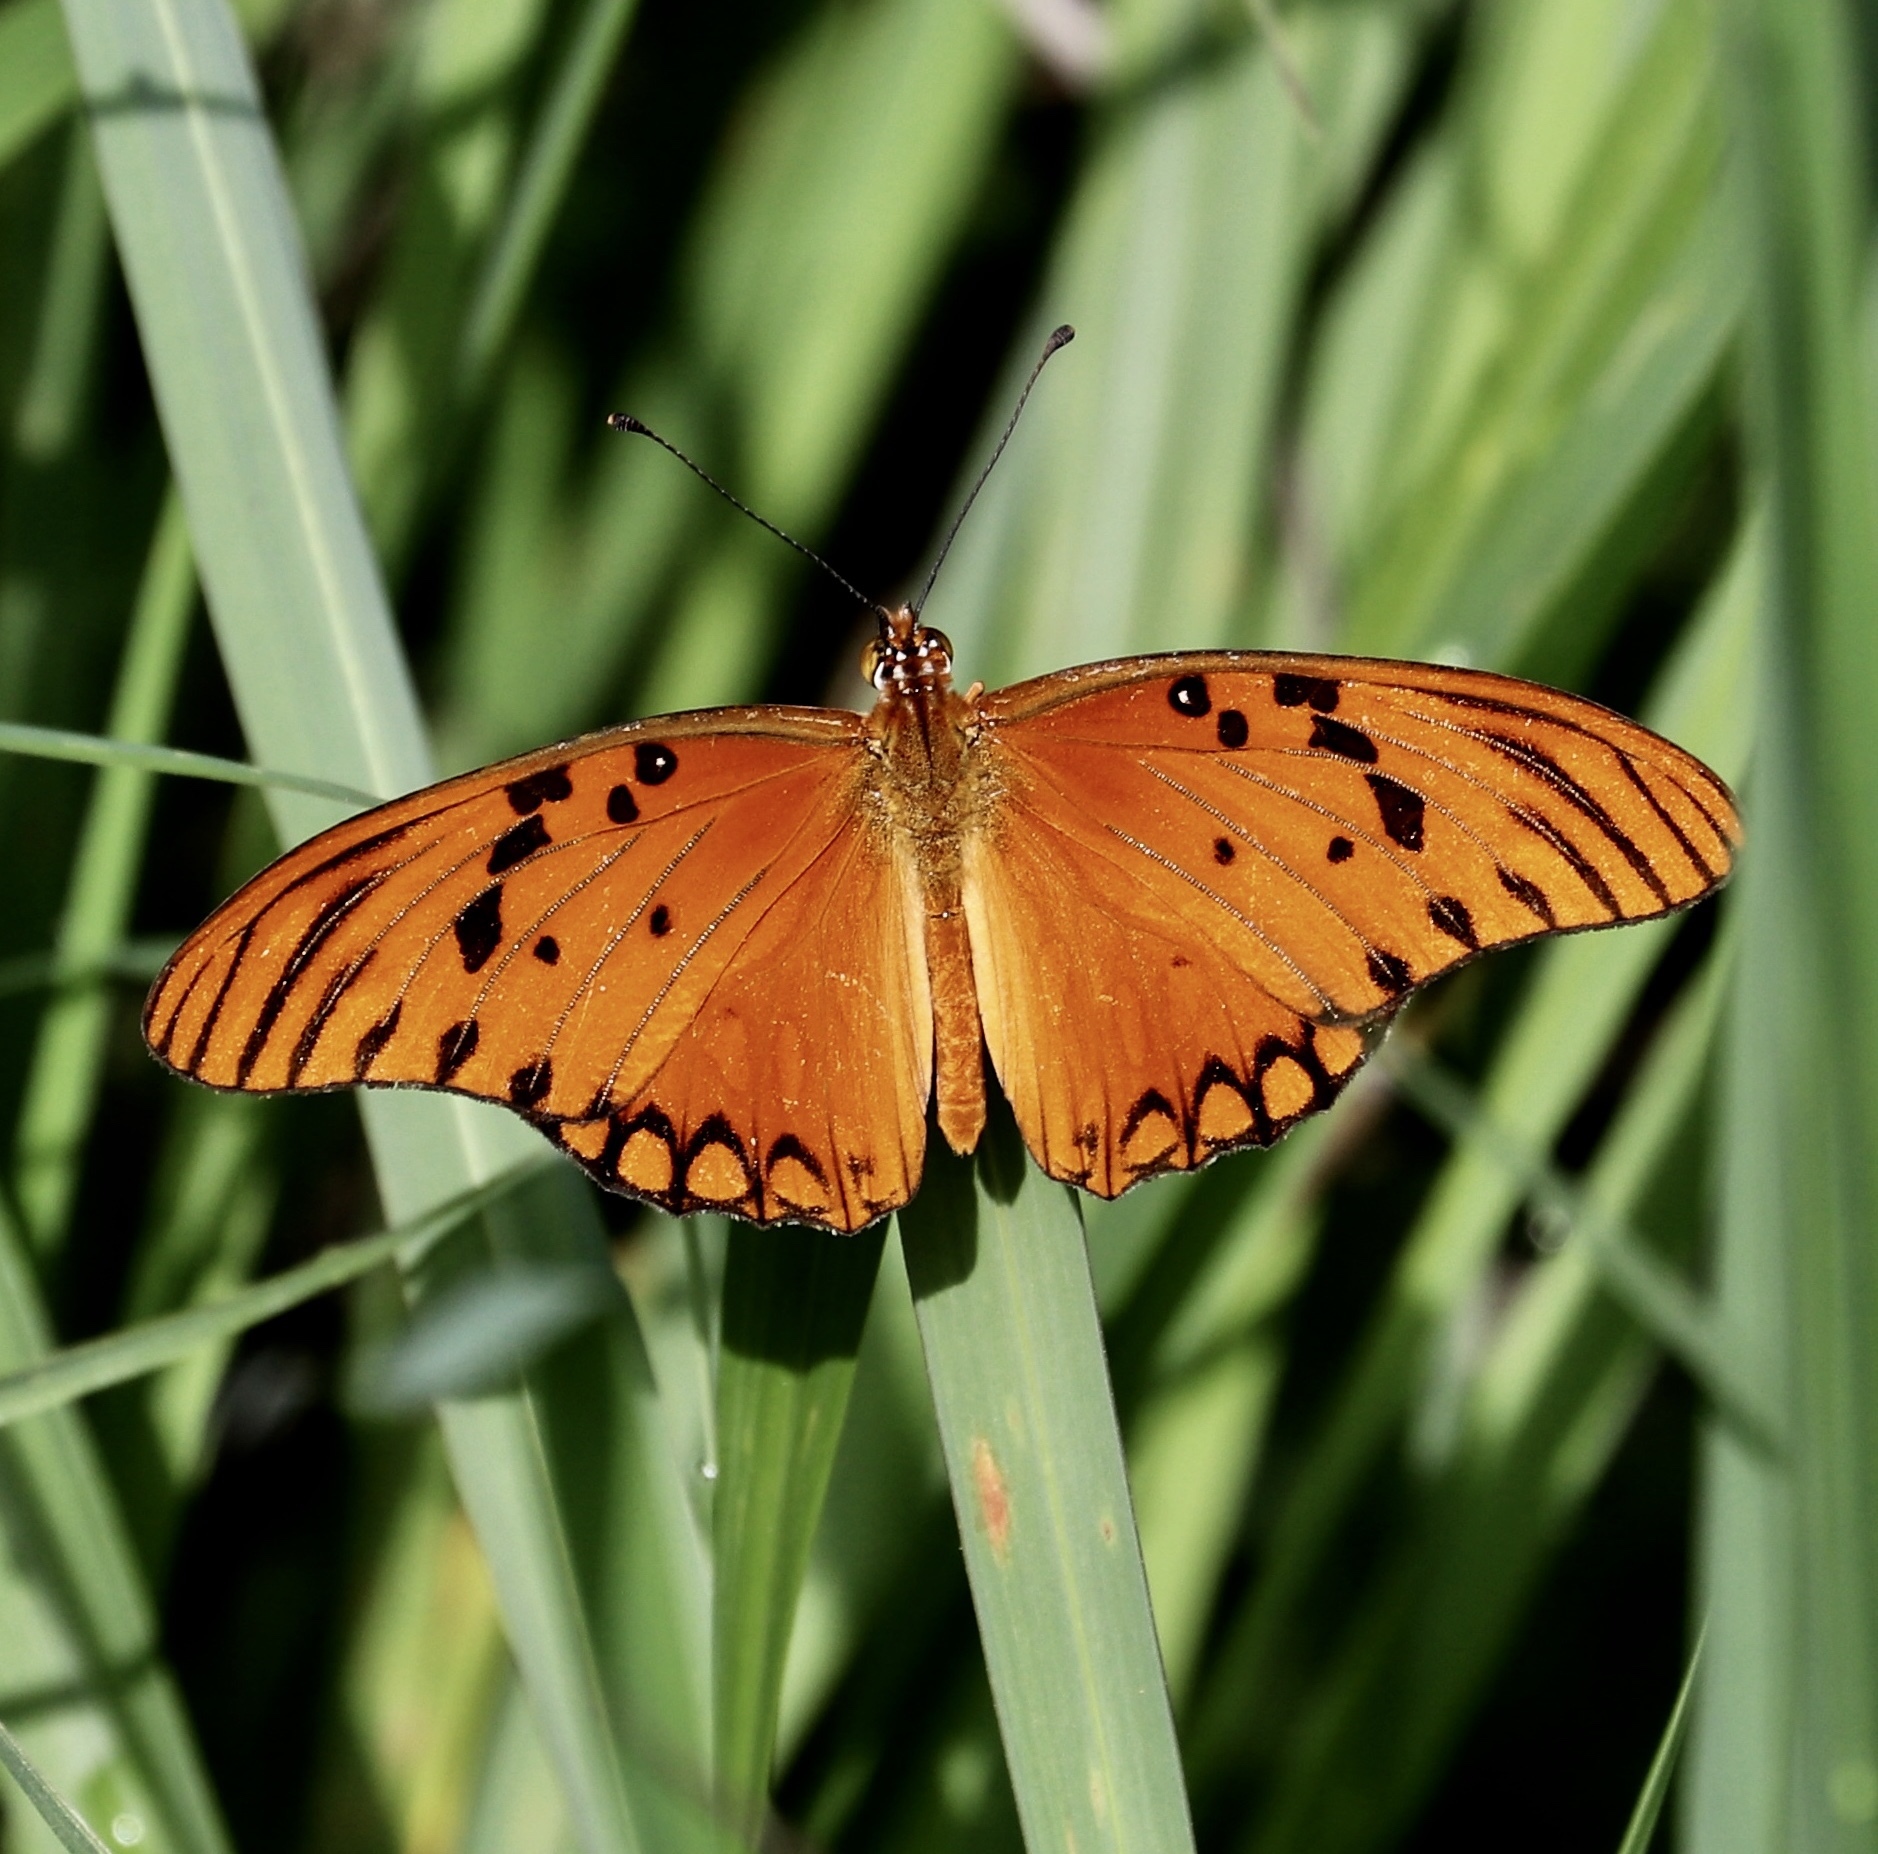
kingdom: Animalia
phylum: Arthropoda
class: Insecta
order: Lepidoptera
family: Nymphalidae
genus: Dione
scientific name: Dione vanillae
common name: Gulf fritillary
